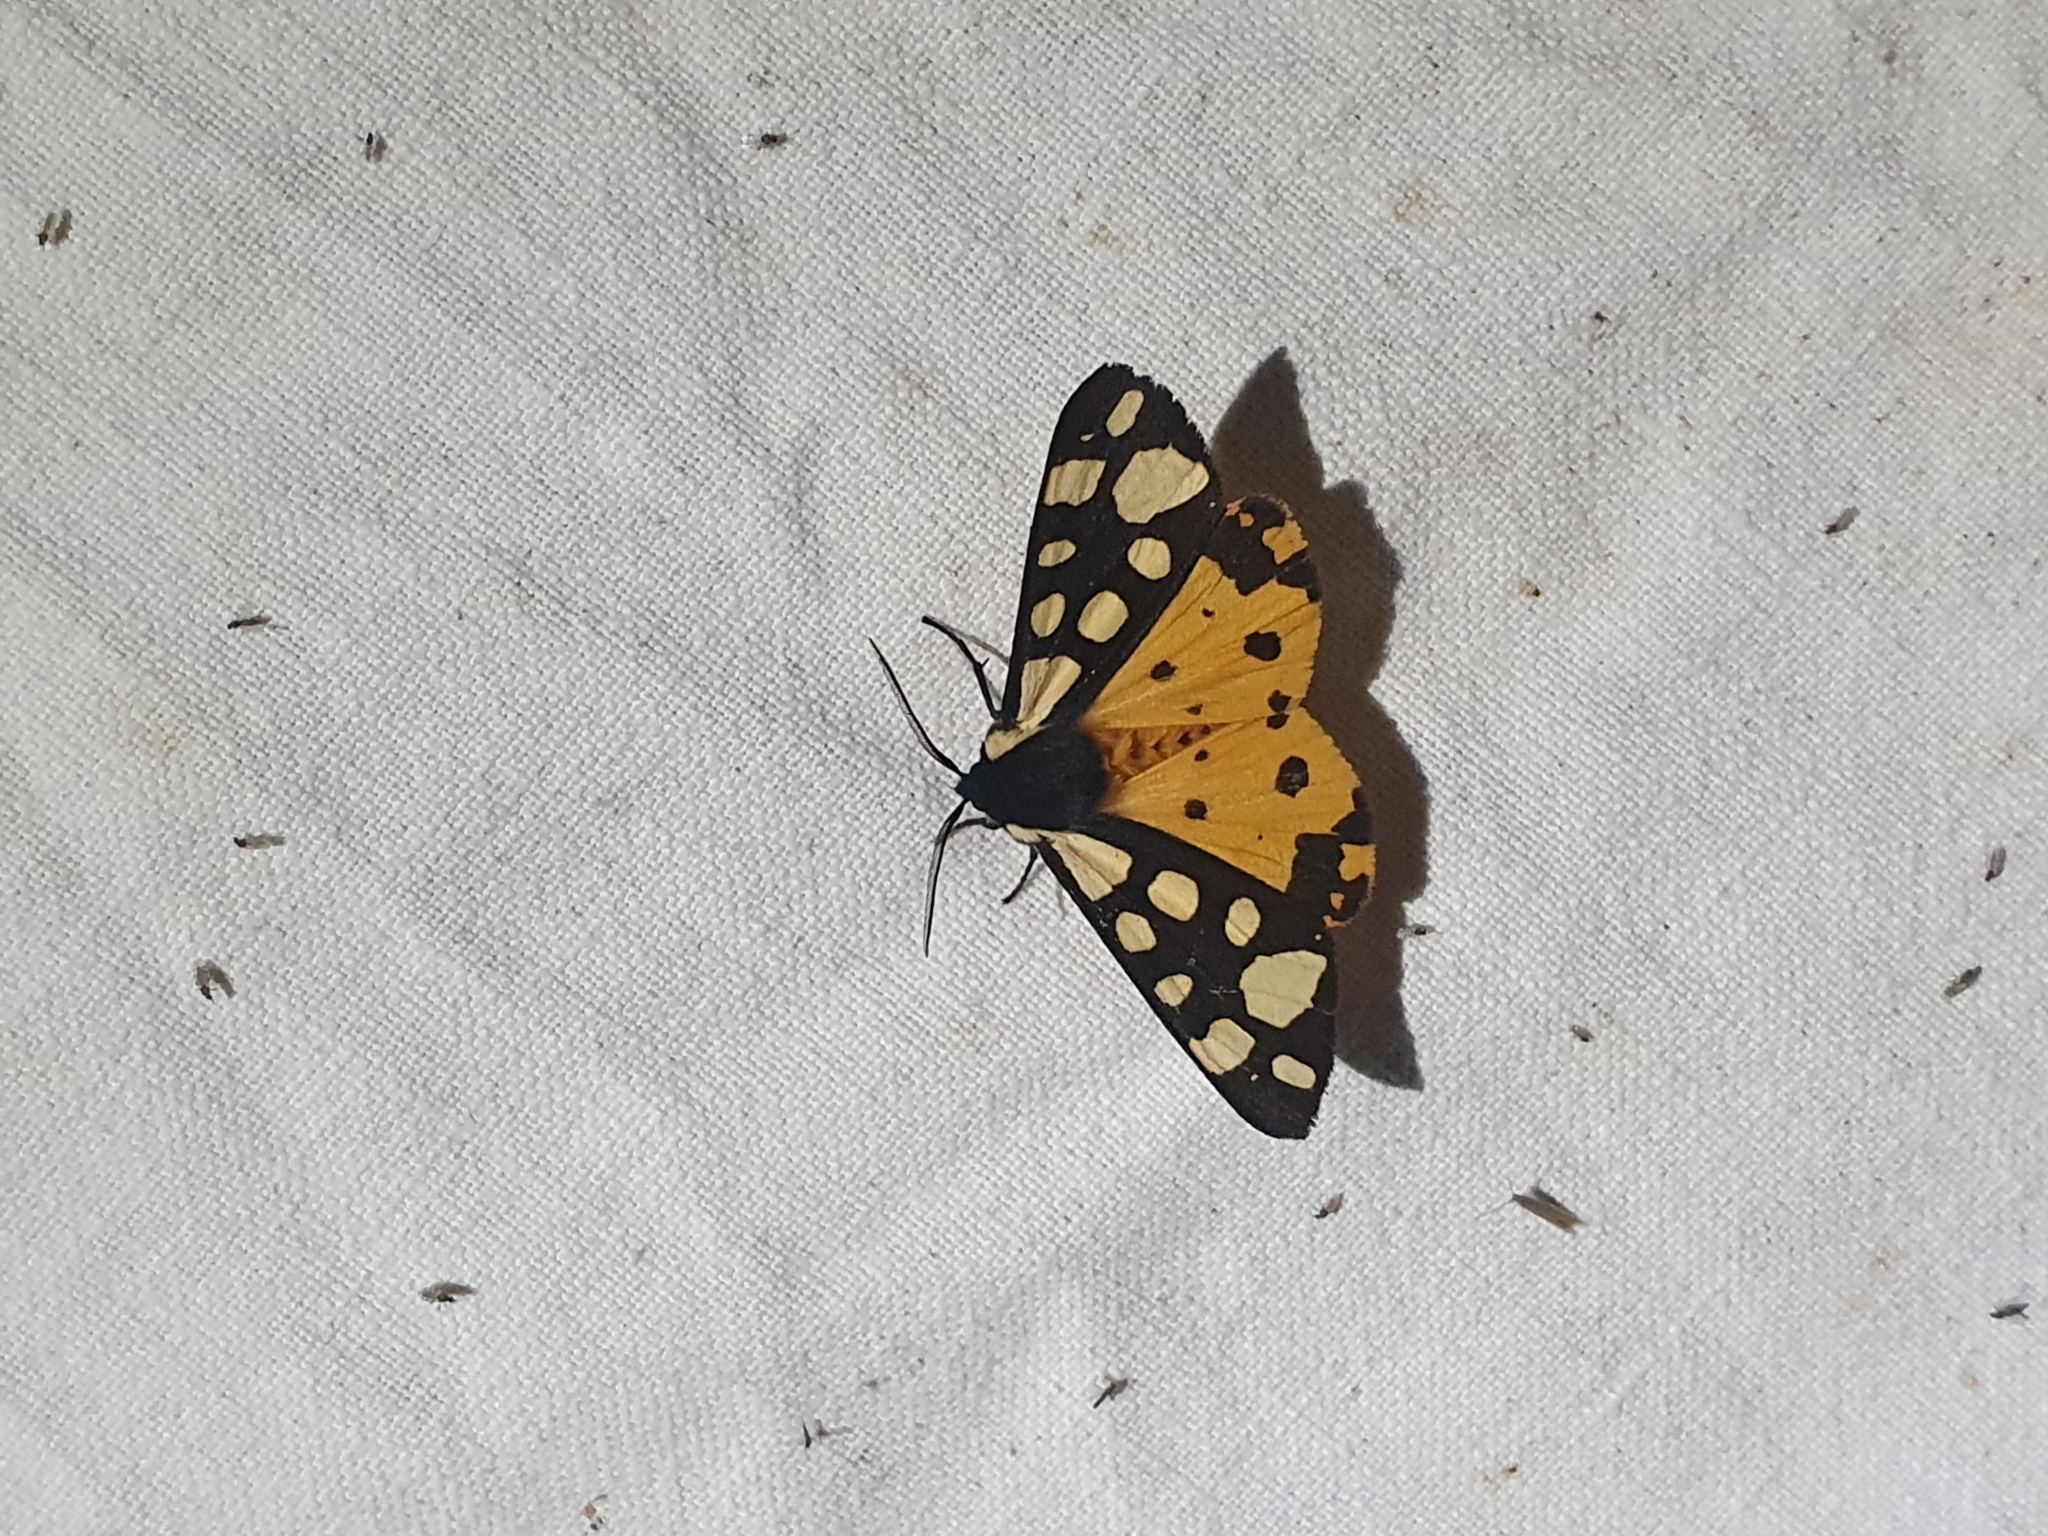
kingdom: Animalia
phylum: Arthropoda
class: Insecta
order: Lepidoptera
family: Erebidae
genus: Epicallia
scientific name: Epicallia villica
